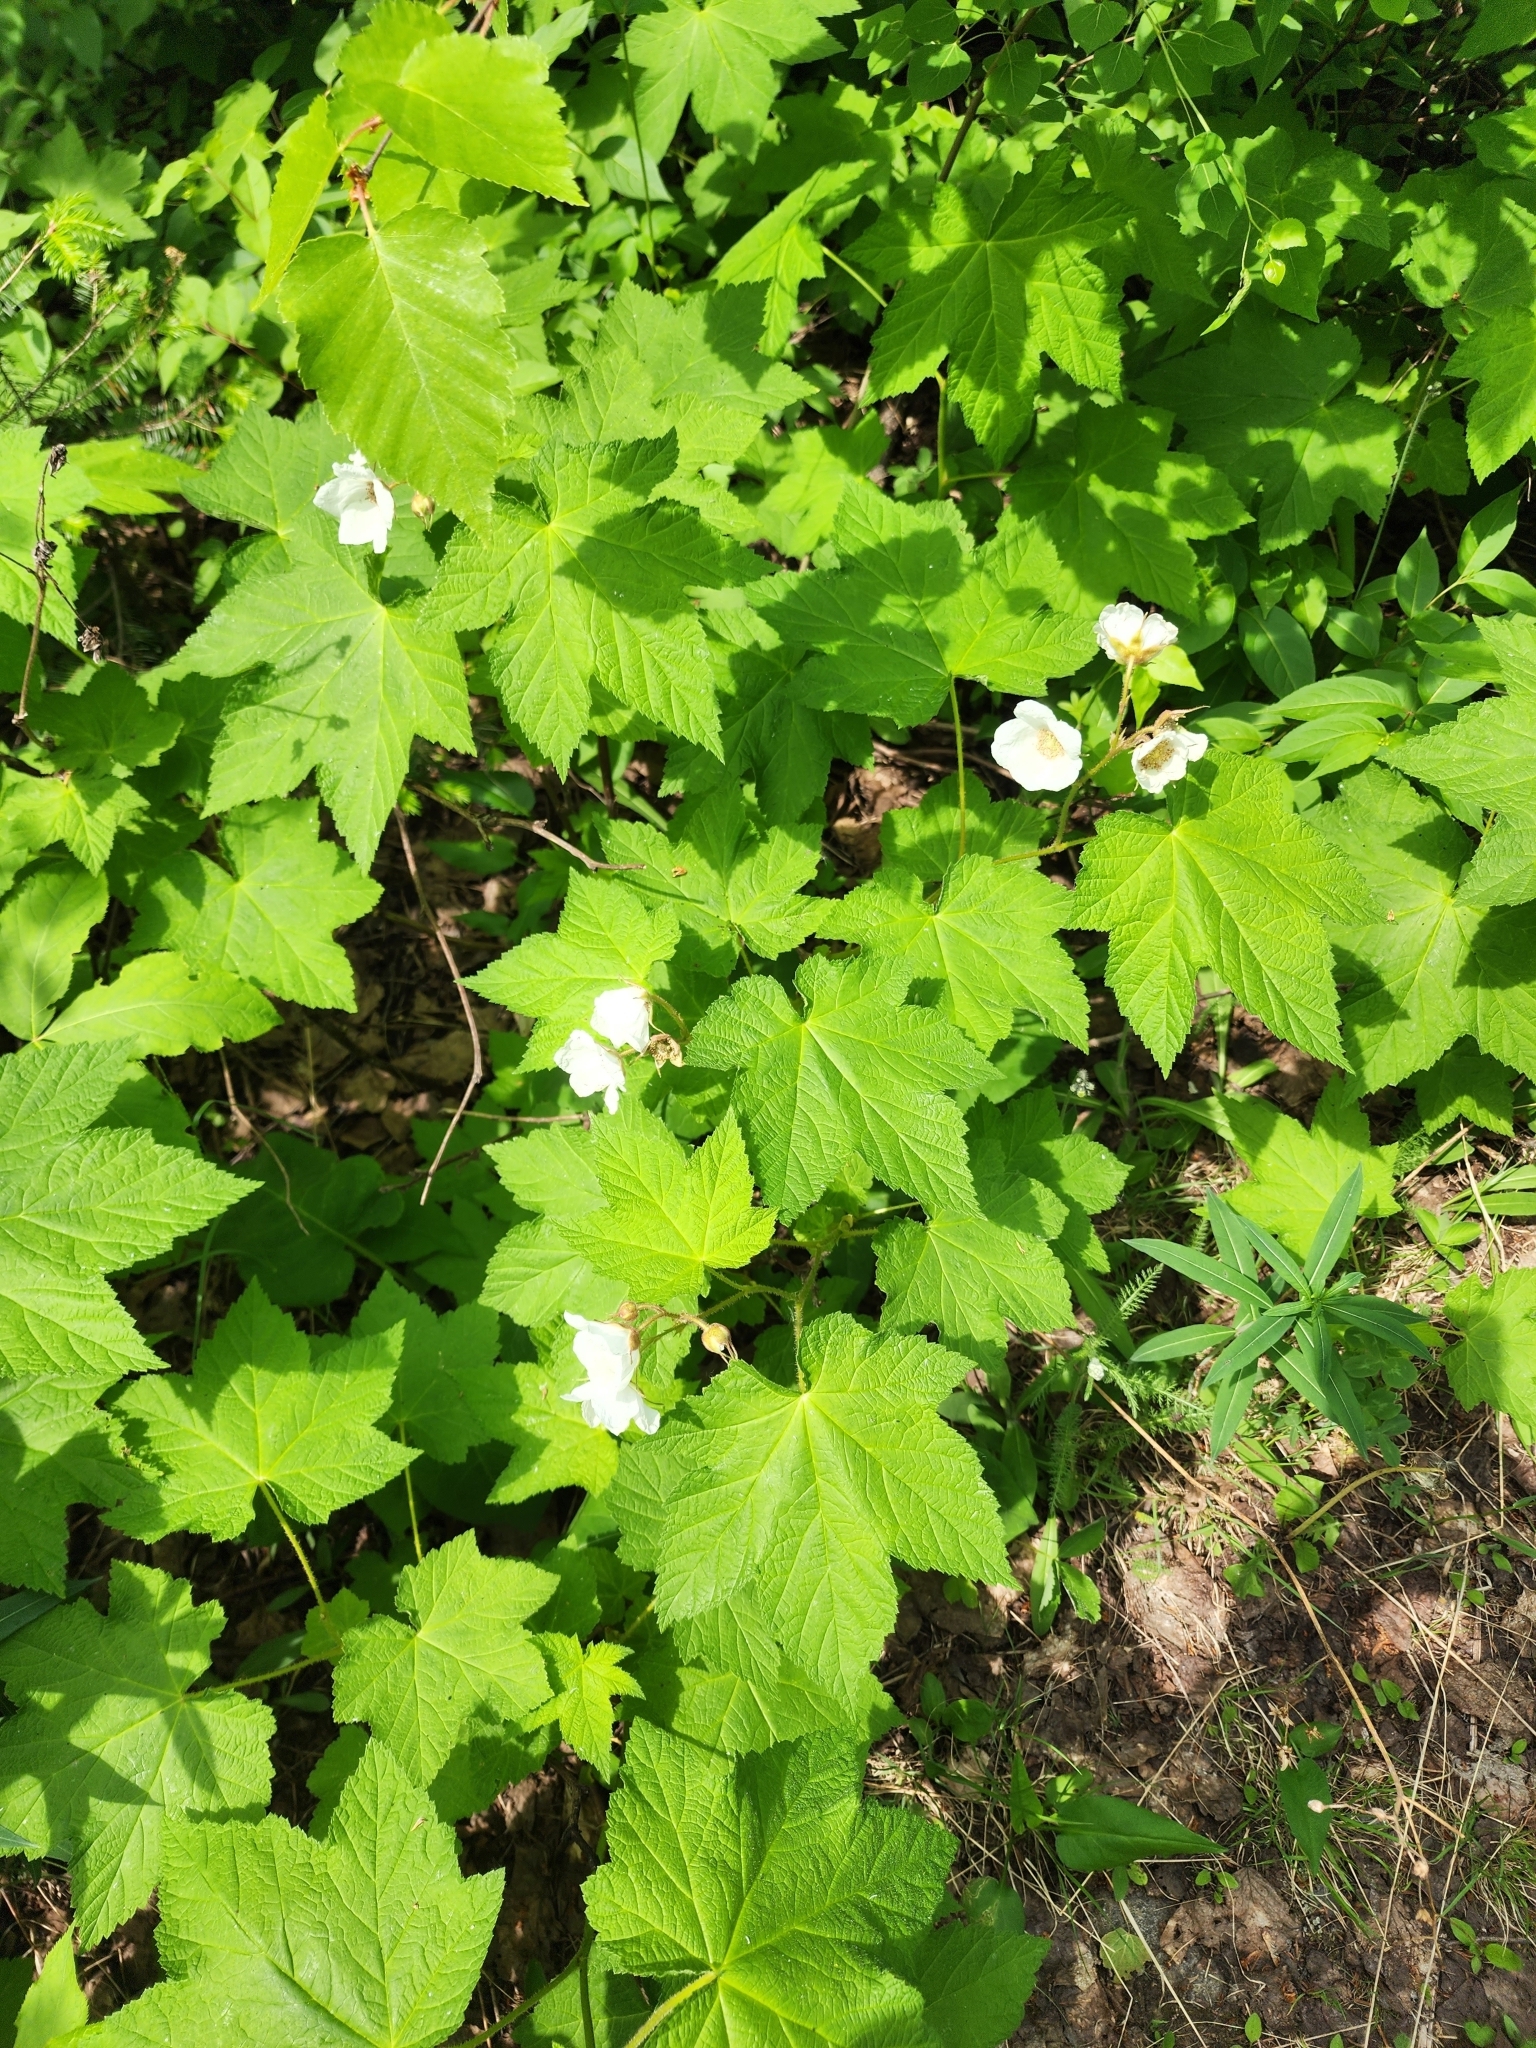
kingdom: Plantae
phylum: Tracheophyta
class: Magnoliopsida
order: Rosales
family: Rosaceae
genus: Rubus
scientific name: Rubus parviflorus
